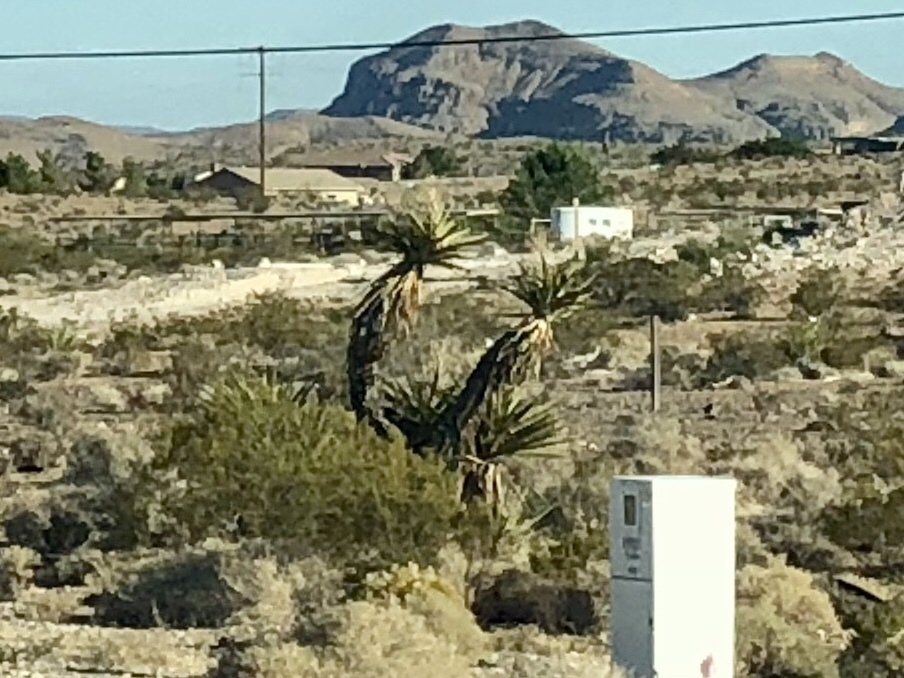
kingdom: Plantae
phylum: Tracheophyta
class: Liliopsida
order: Asparagales
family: Asparagaceae
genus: Yucca
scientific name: Yucca schidigera
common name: Mojave yucca
